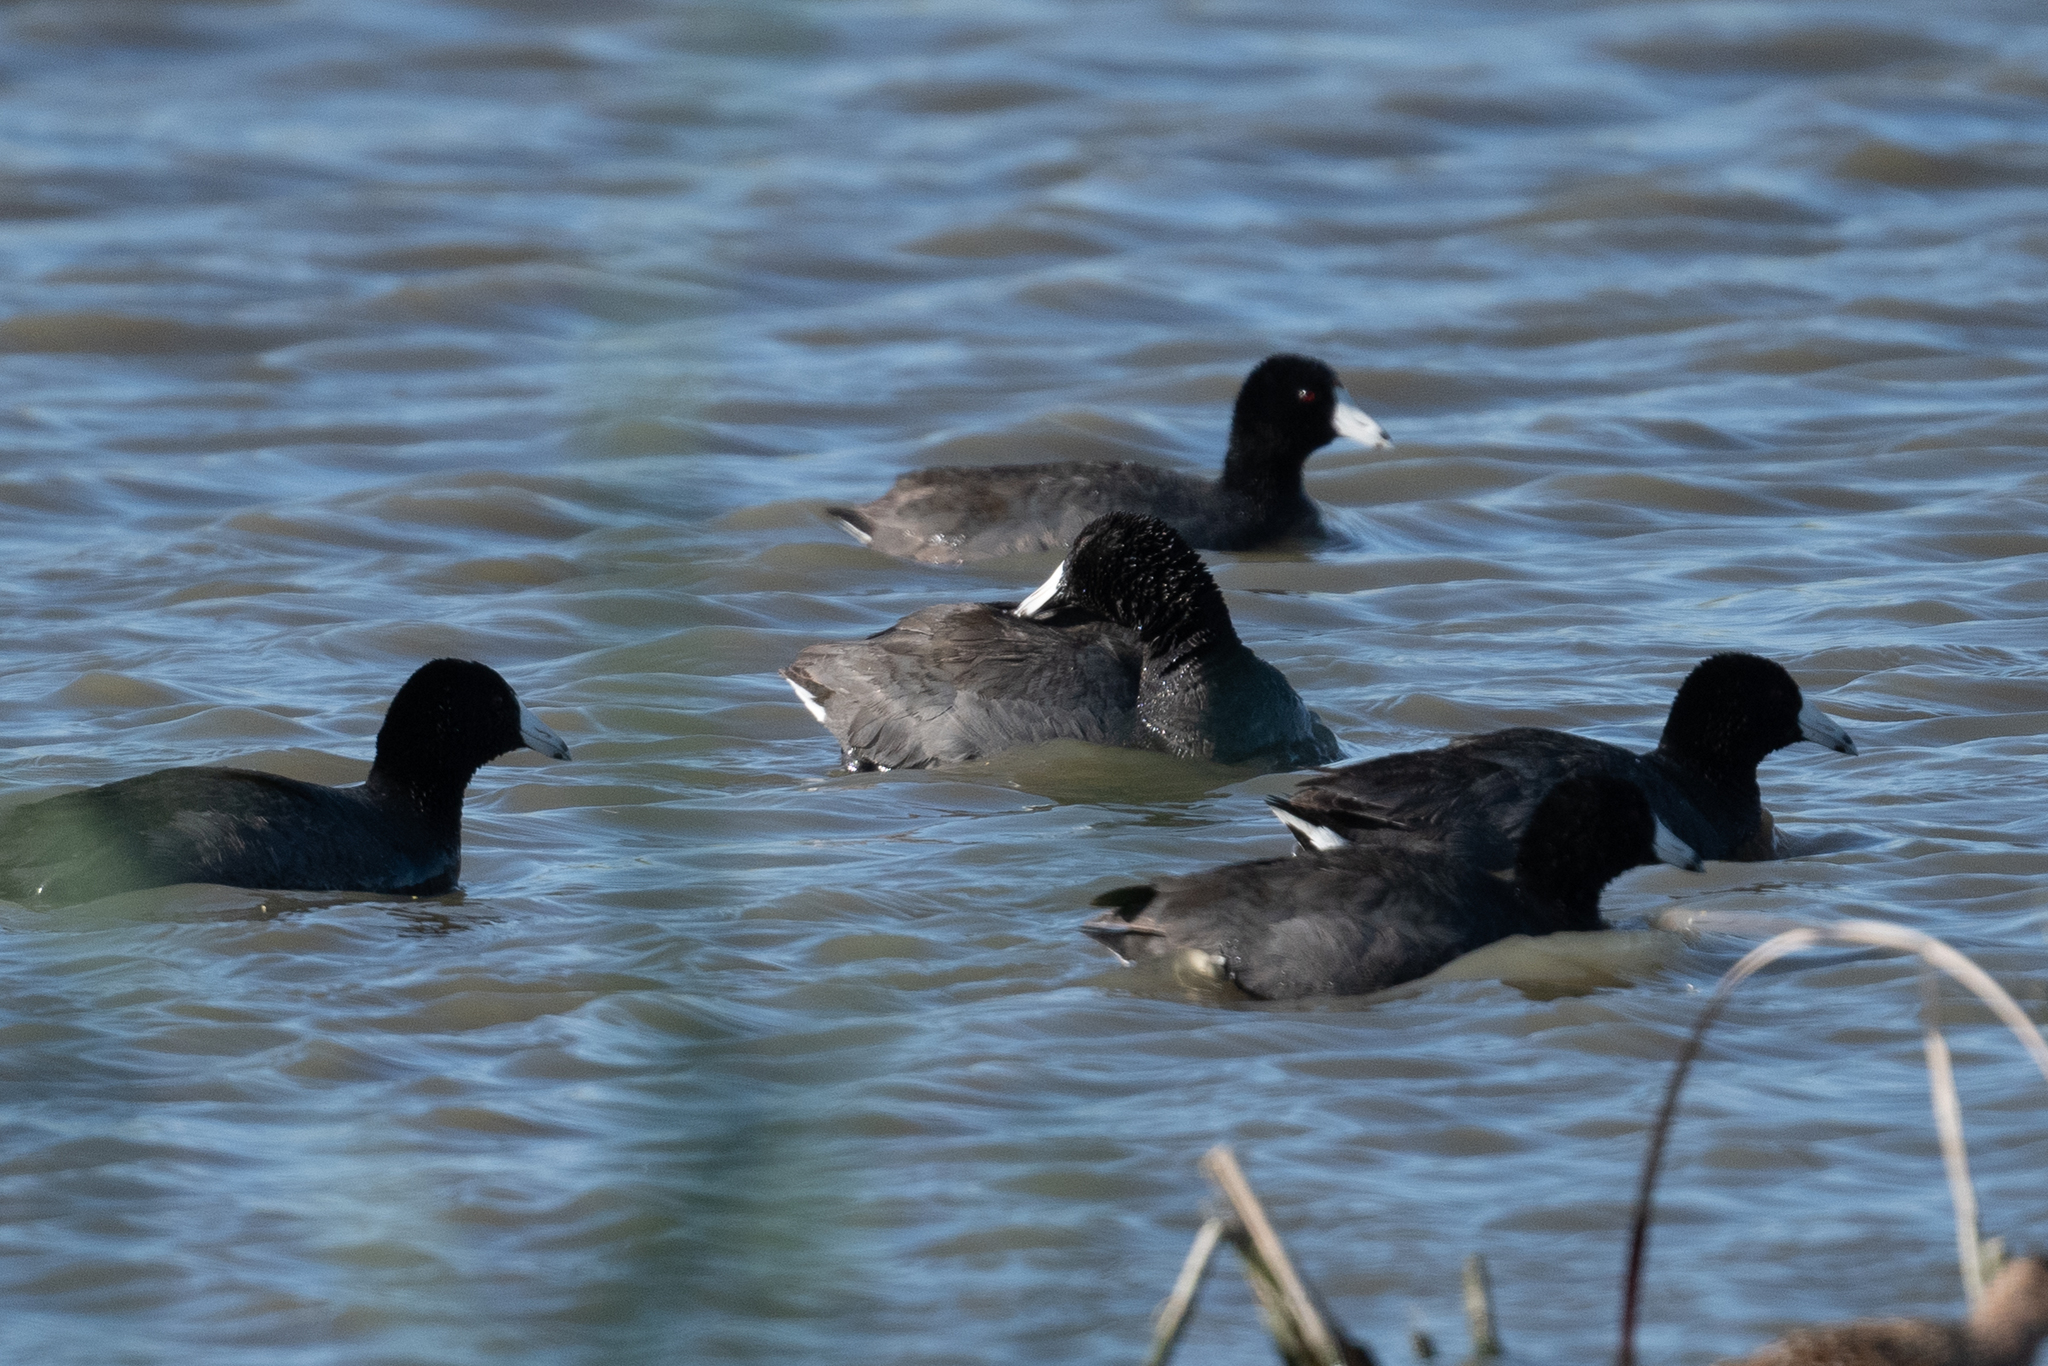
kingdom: Animalia
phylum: Chordata
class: Aves
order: Gruiformes
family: Rallidae
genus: Fulica
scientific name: Fulica americana
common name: American coot
